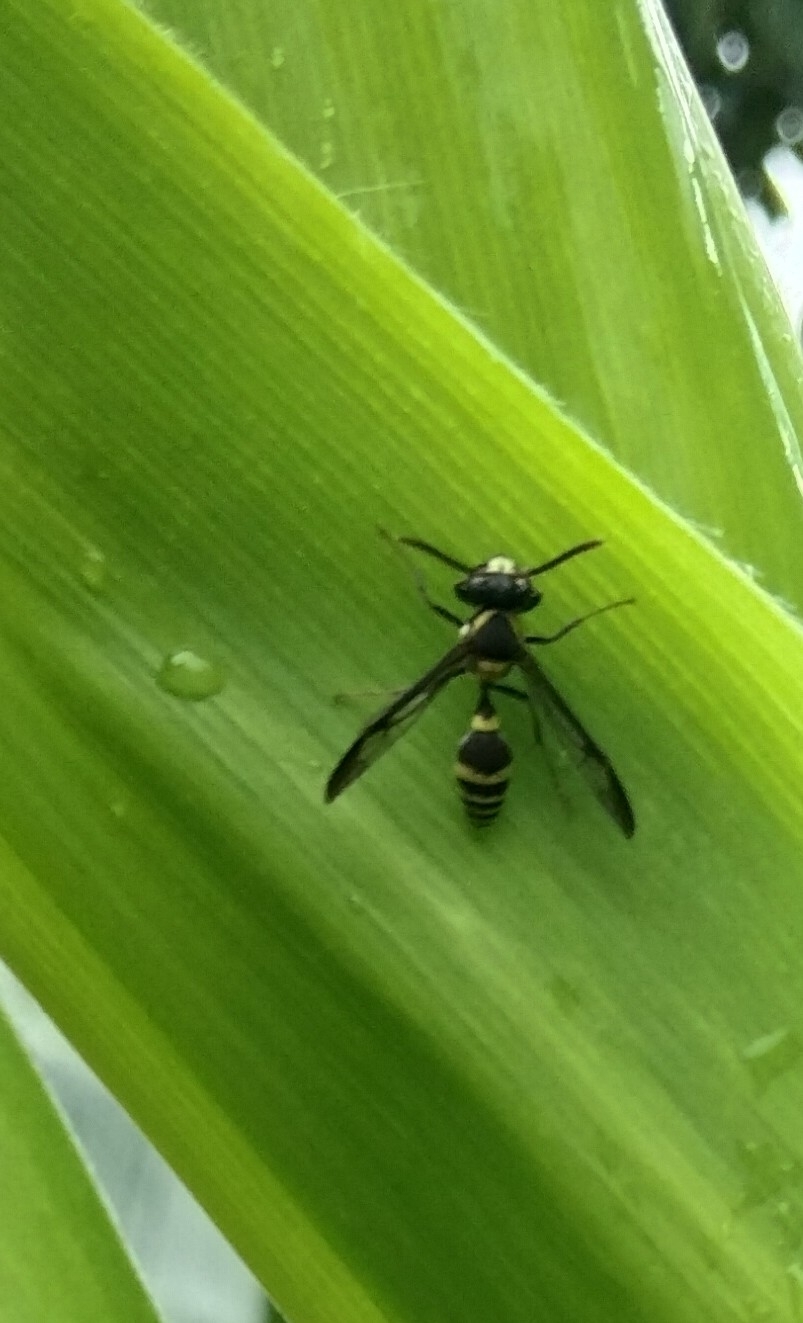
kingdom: Animalia
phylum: Arthropoda
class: Insecta
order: Hymenoptera
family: Eumenidae
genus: Polybia
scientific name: Polybia occidentalis
